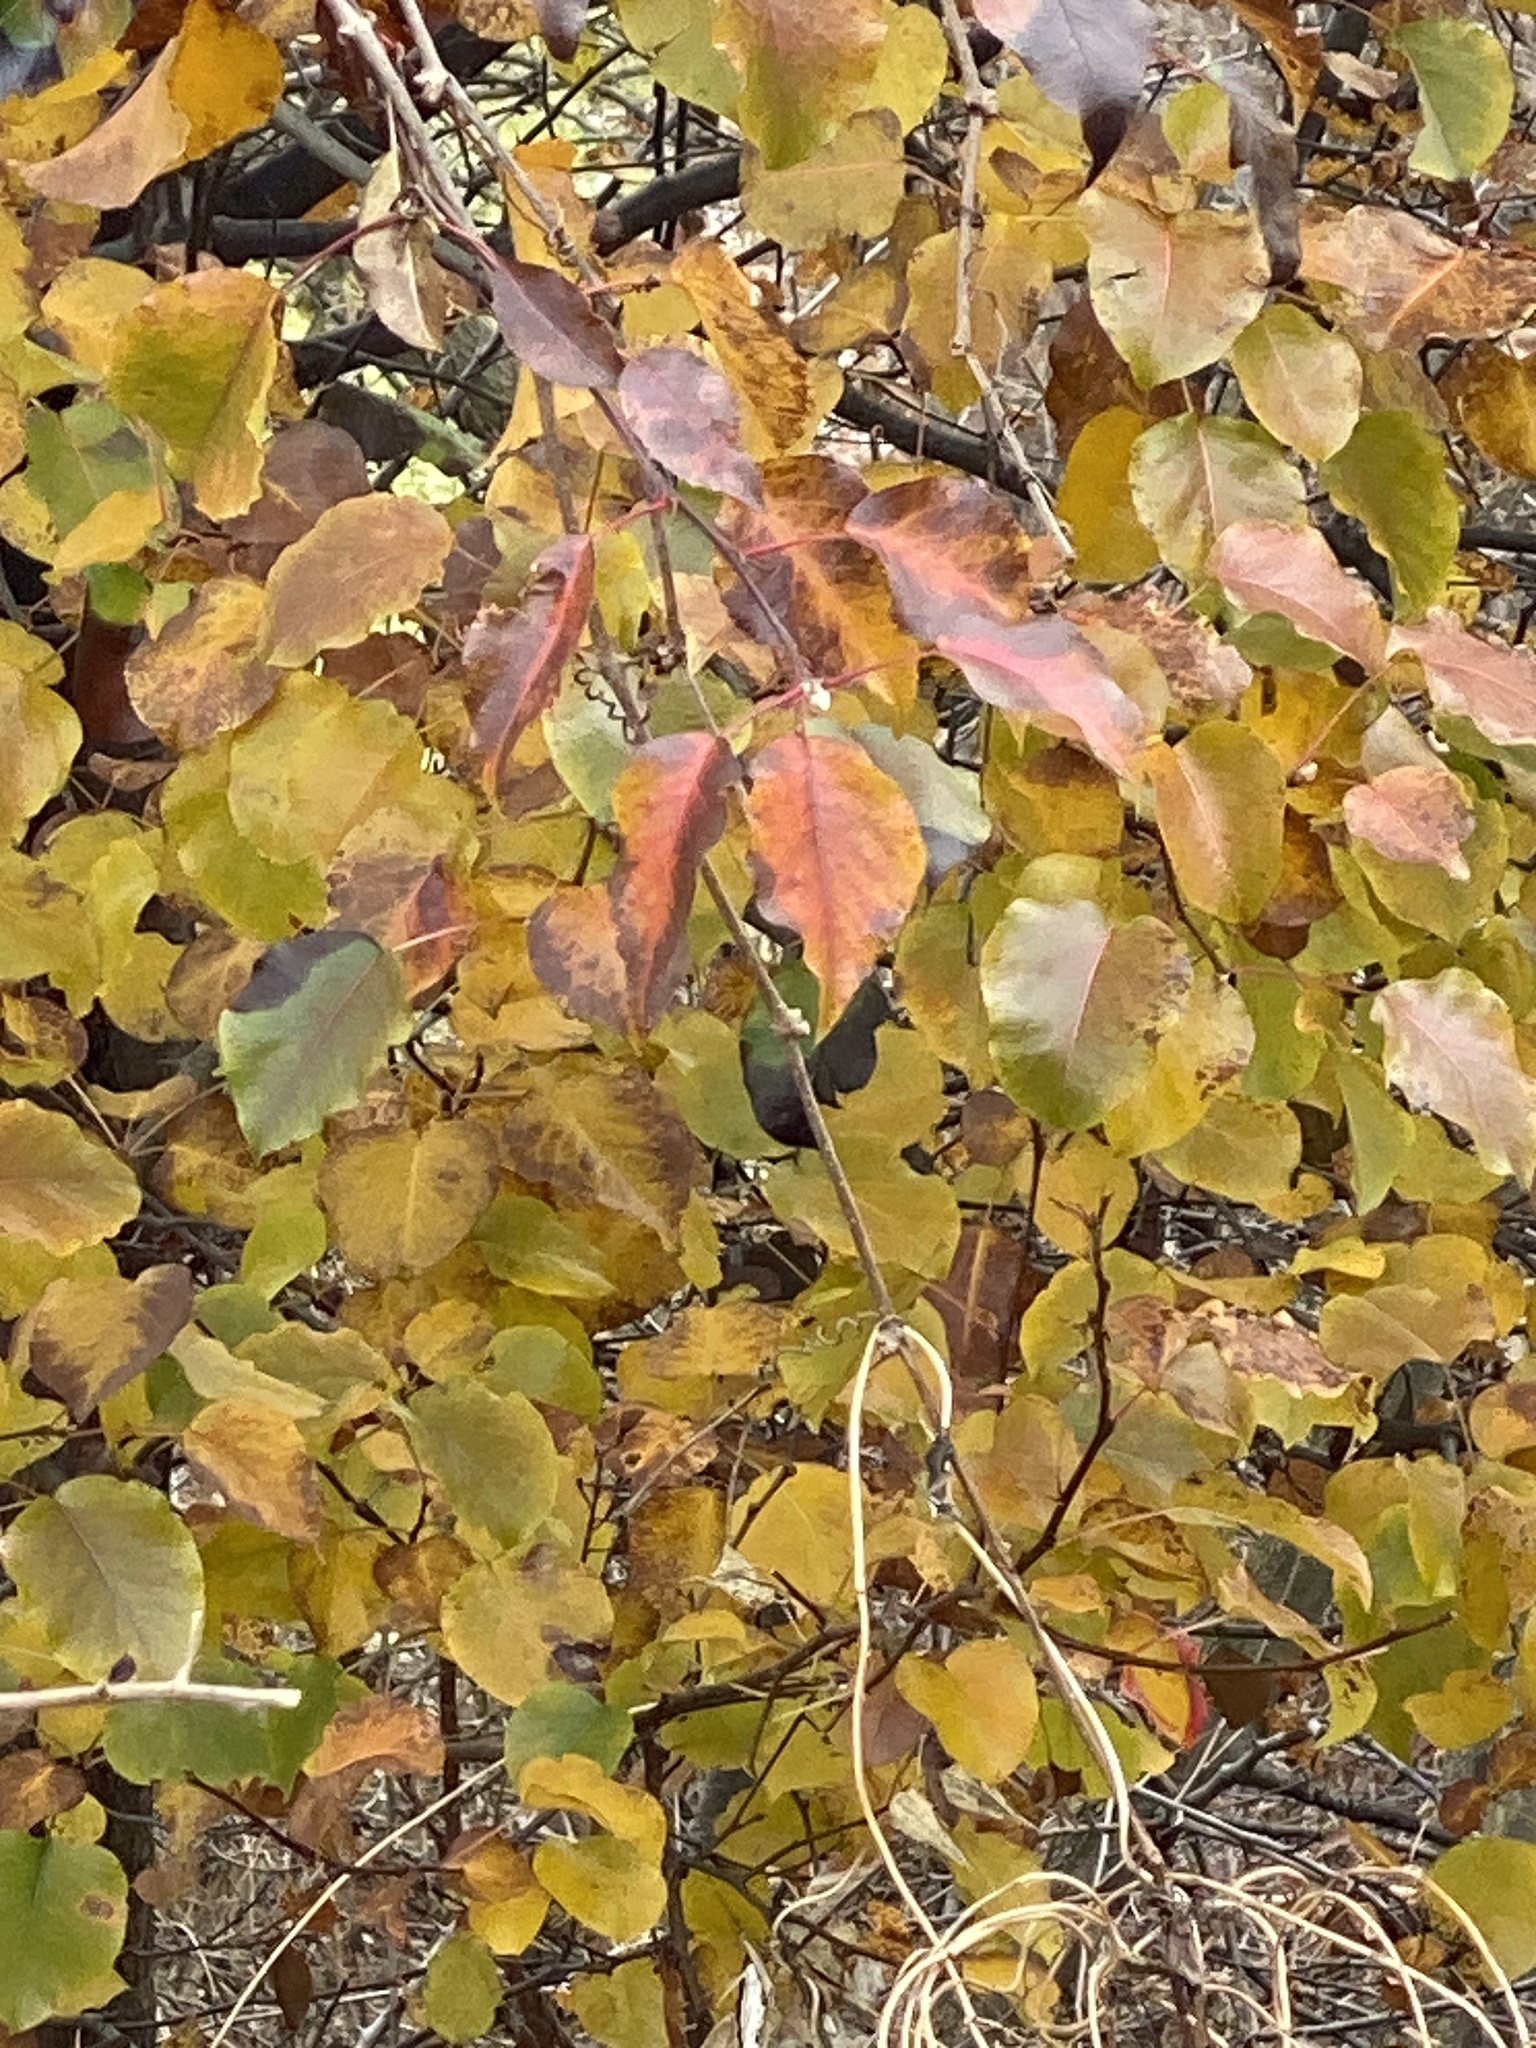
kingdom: Plantae
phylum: Tracheophyta
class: Magnoliopsida
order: Rosales
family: Rosaceae
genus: Pyrus
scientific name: Pyrus calleryana
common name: Callery pear
